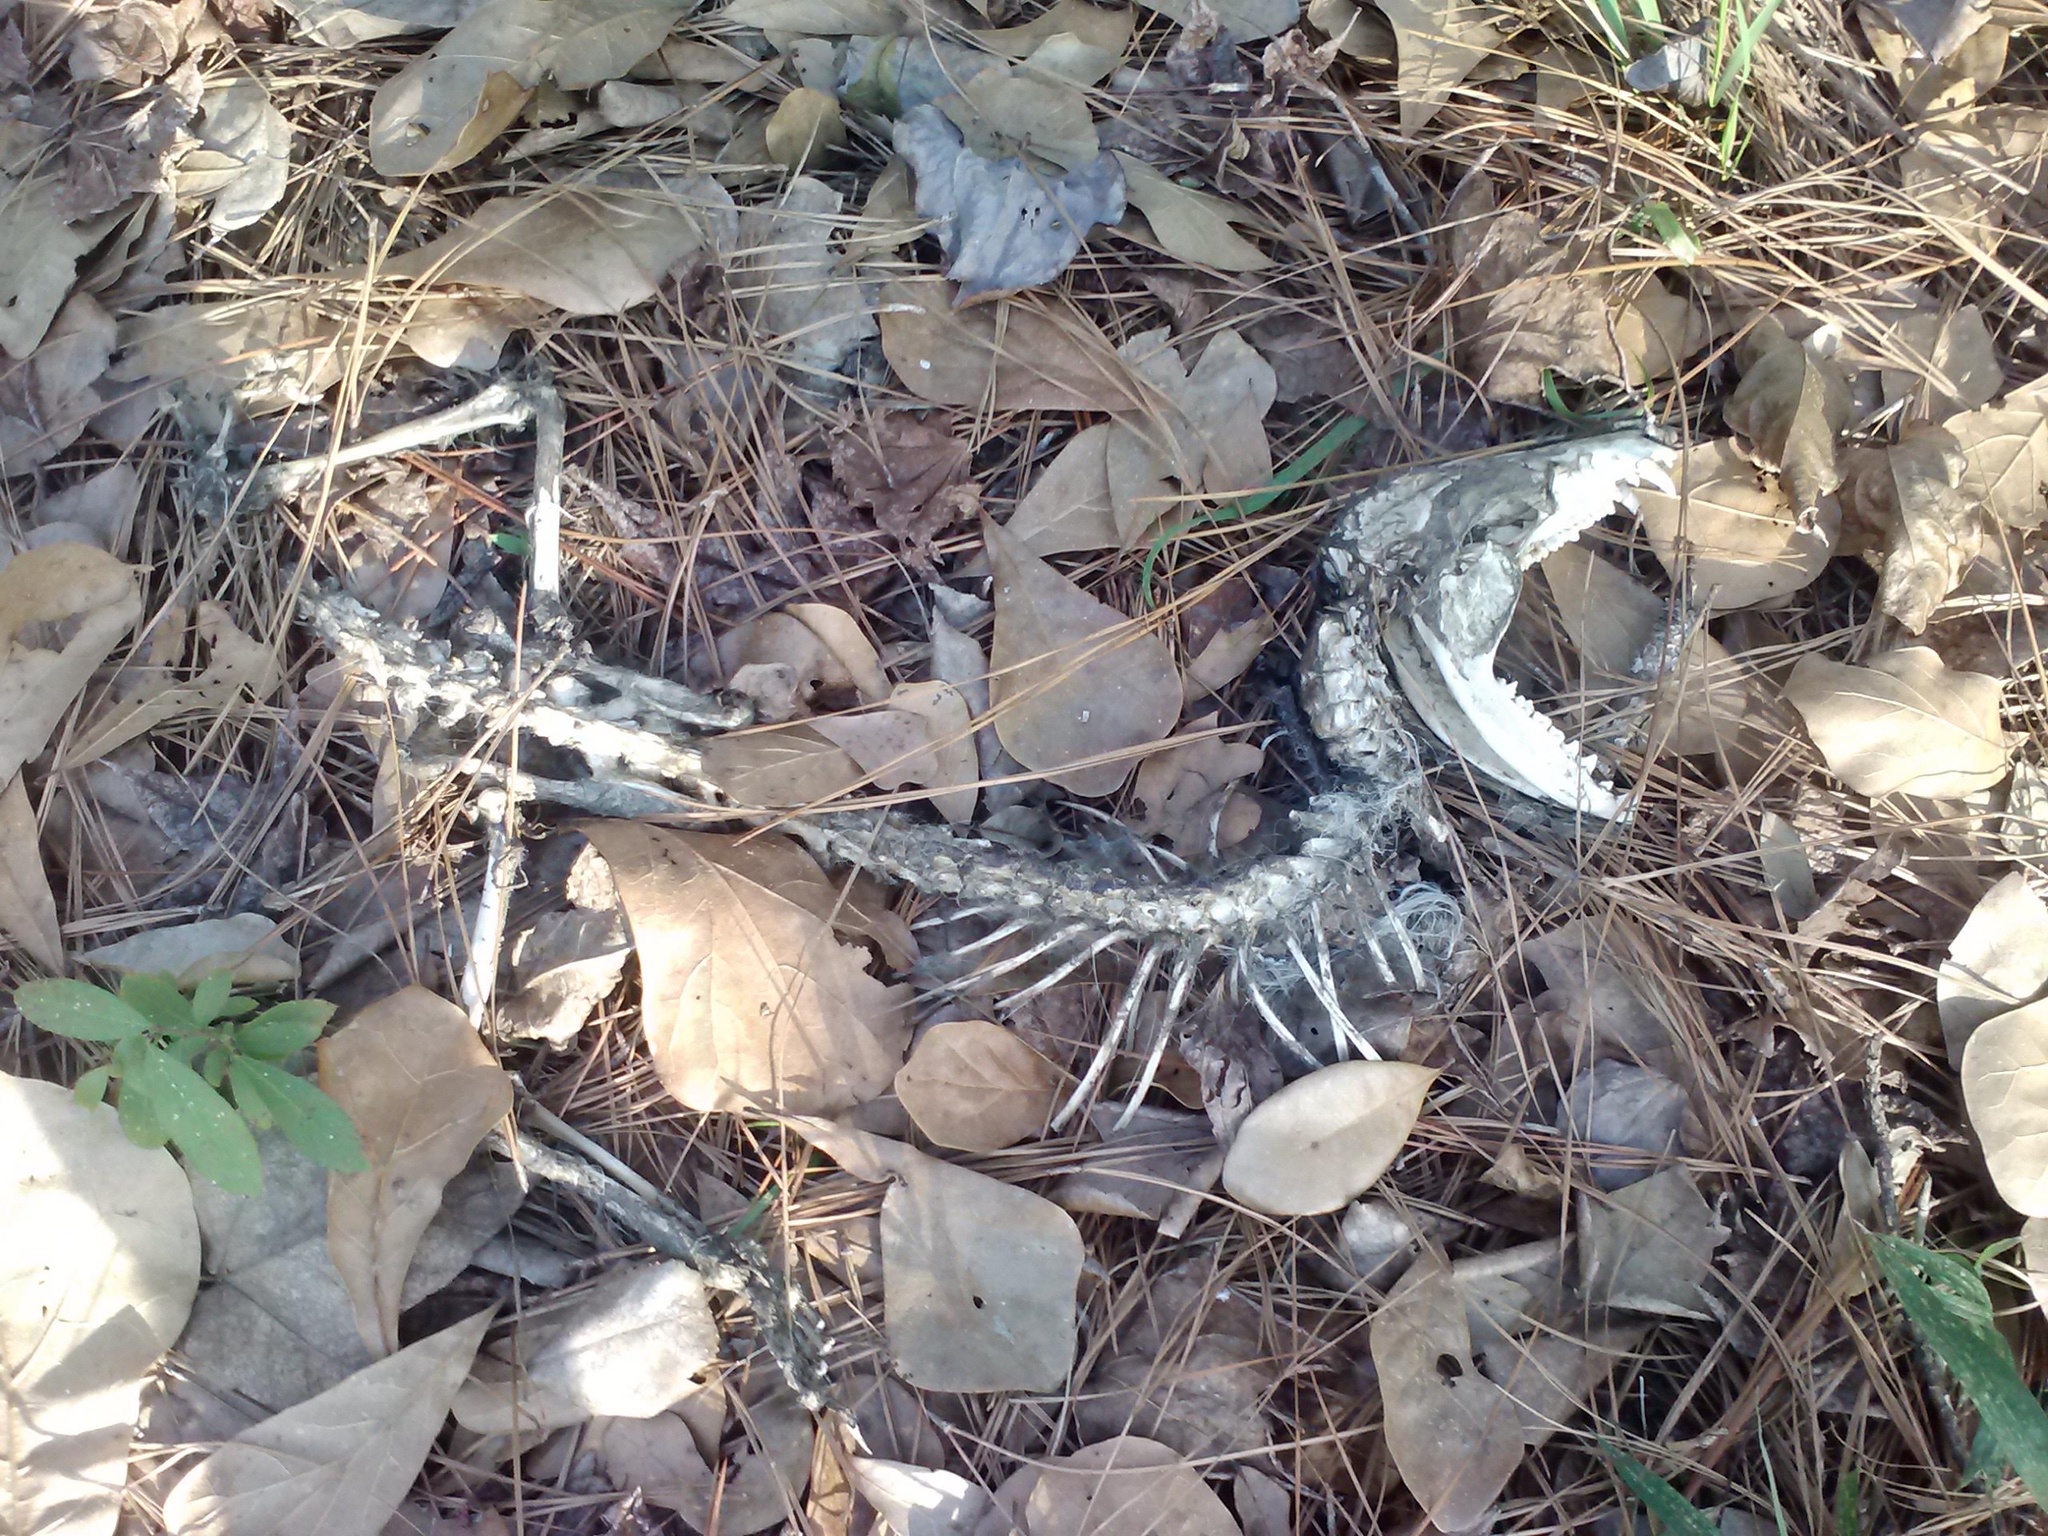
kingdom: Animalia
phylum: Chordata
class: Mammalia
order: Didelphimorphia
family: Didelphidae
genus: Didelphis
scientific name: Didelphis virginiana
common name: Virginia opossum
